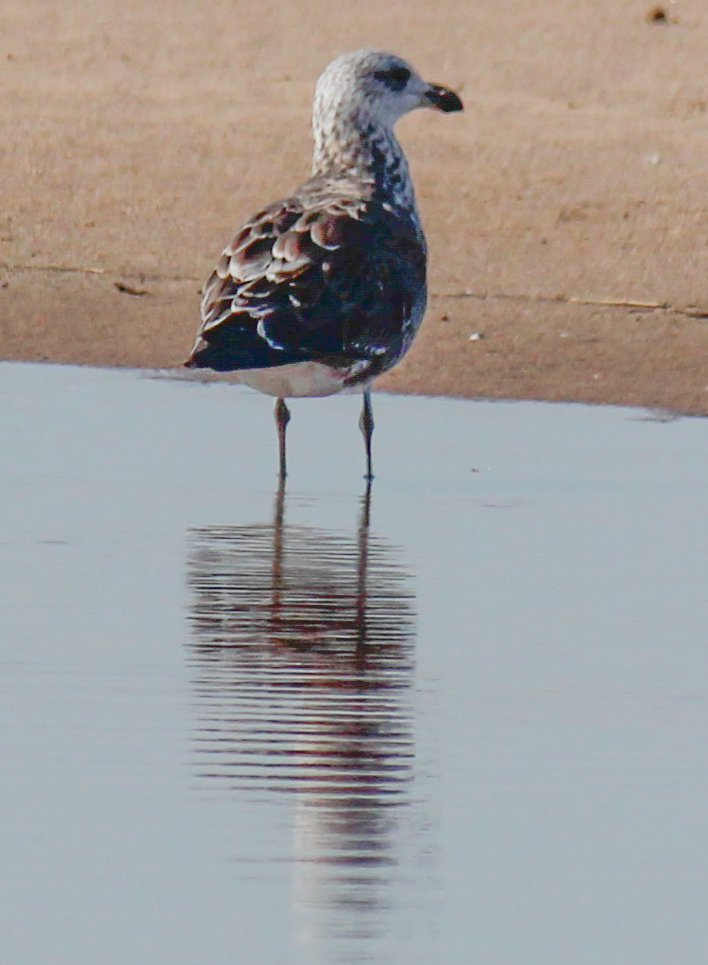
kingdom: Animalia
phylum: Chordata
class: Aves
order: Charadriiformes
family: Laridae
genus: Larus
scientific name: Larus dominicanus
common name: Kelp gull
